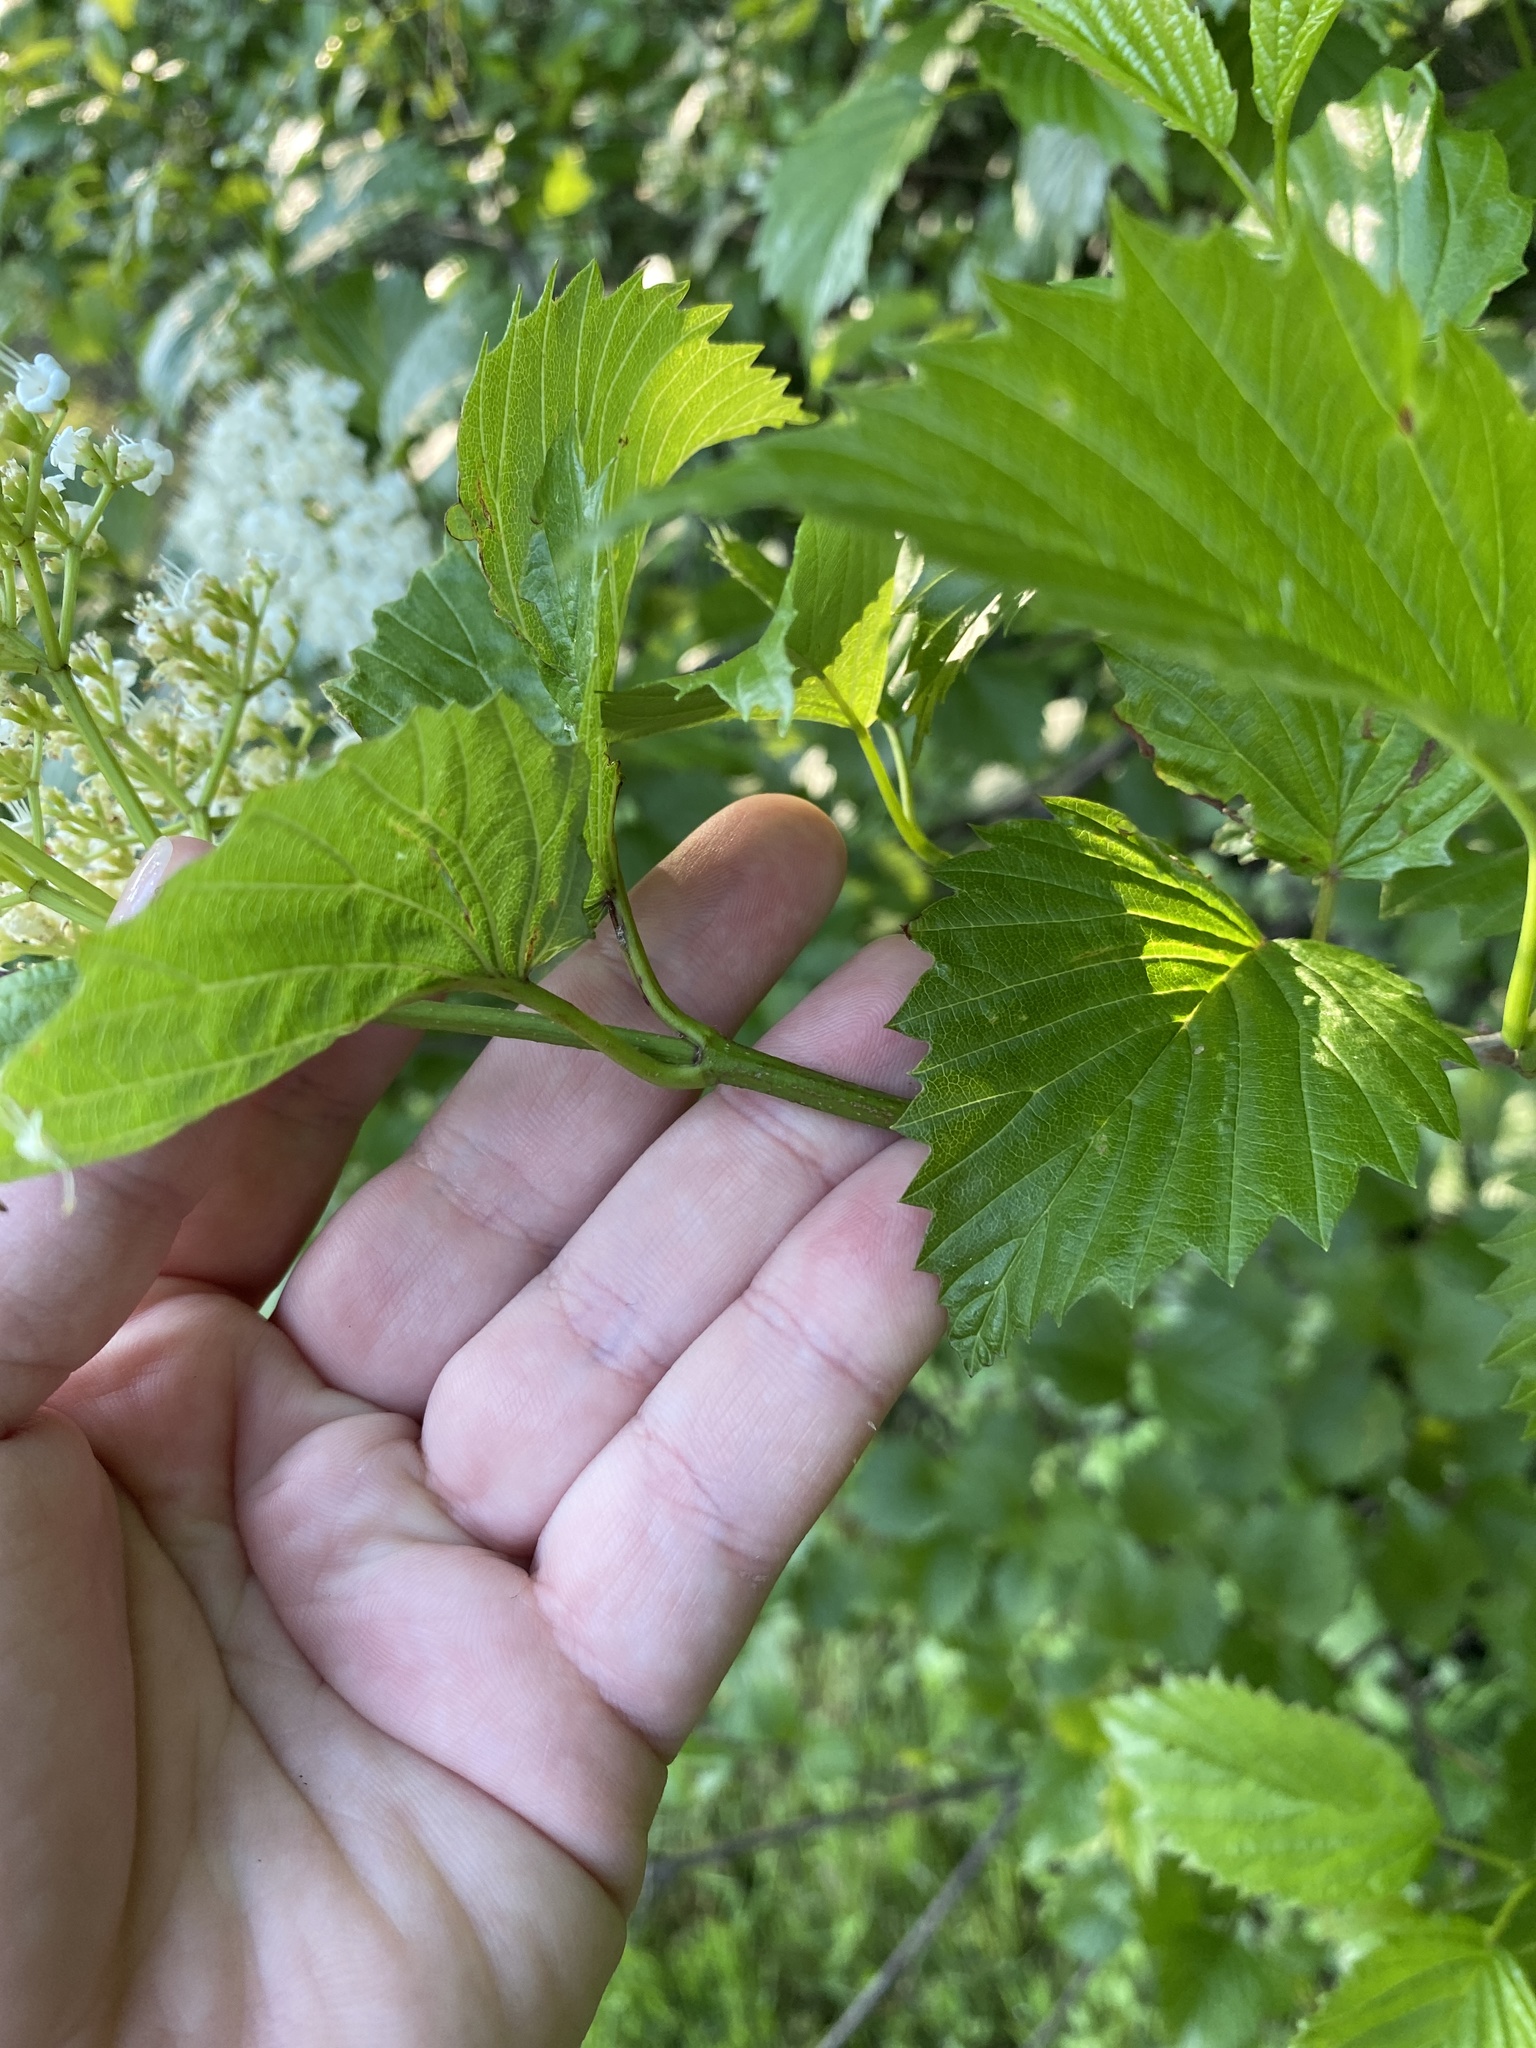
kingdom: Plantae
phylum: Tracheophyta
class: Magnoliopsida
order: Dipsacales
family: Viburnaceae
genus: Viburnum
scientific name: Viburnum dentatum
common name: Arrow-wood
